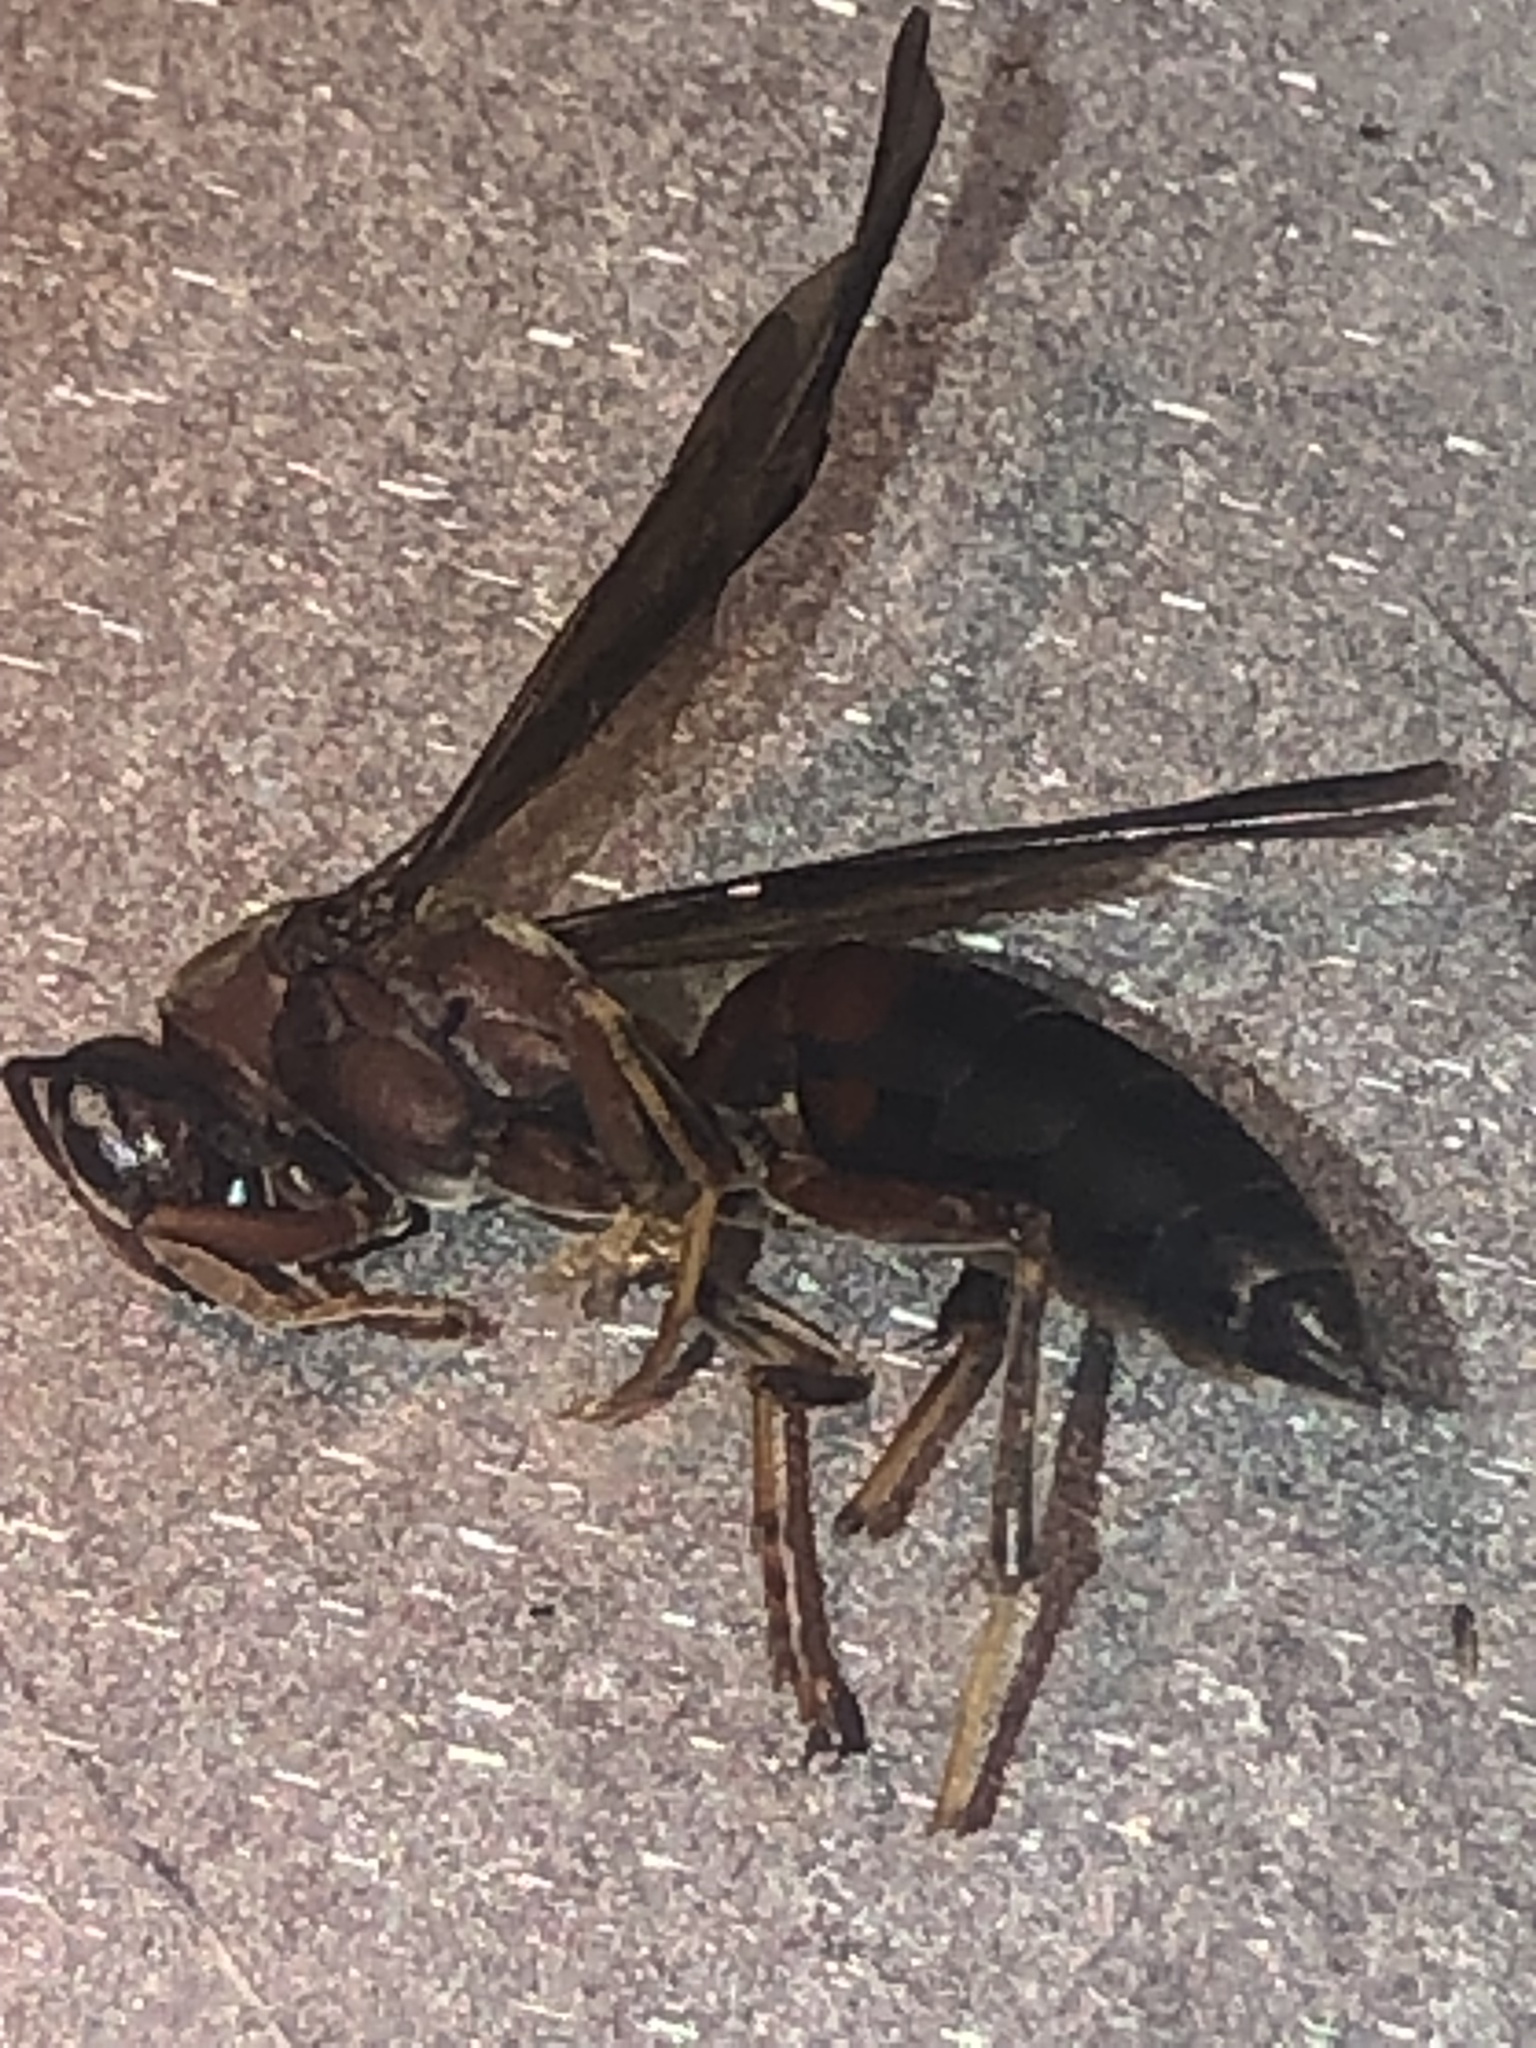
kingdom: Animalia
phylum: Arthropoda
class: Insecta
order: Hymenoptera
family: Eumenidae
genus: Polistes
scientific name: Polistes metricus
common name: Metric paper wasp
